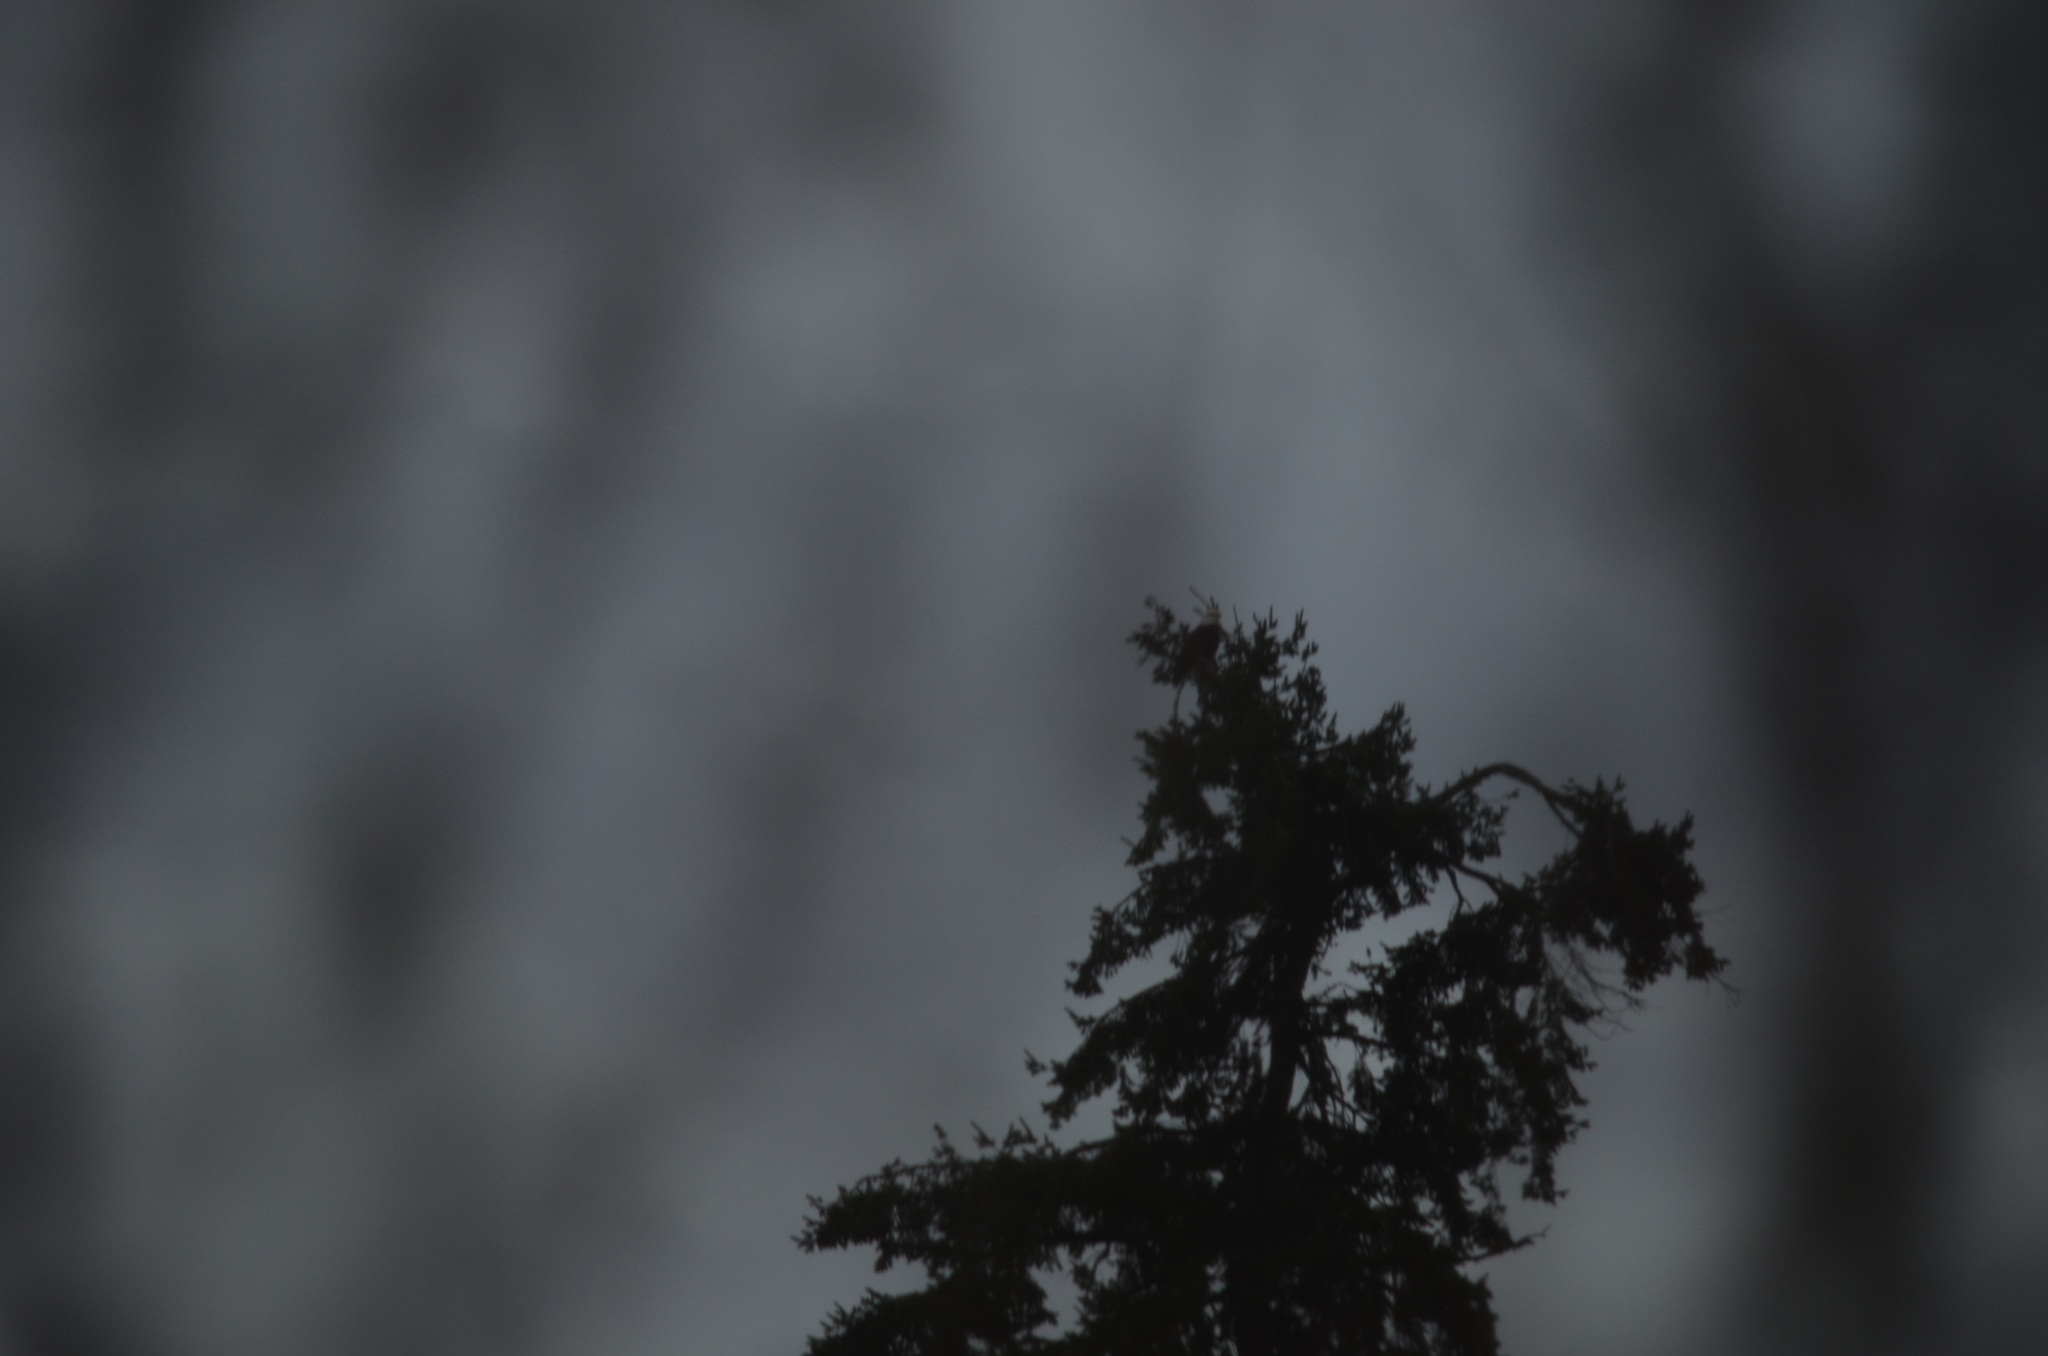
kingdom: Animalia
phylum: Chordata
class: Aves
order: Accipitriformes
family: Accipitridae
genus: Haliaeetus
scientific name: Haliaeetus leucocephalus
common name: Bald eagle
